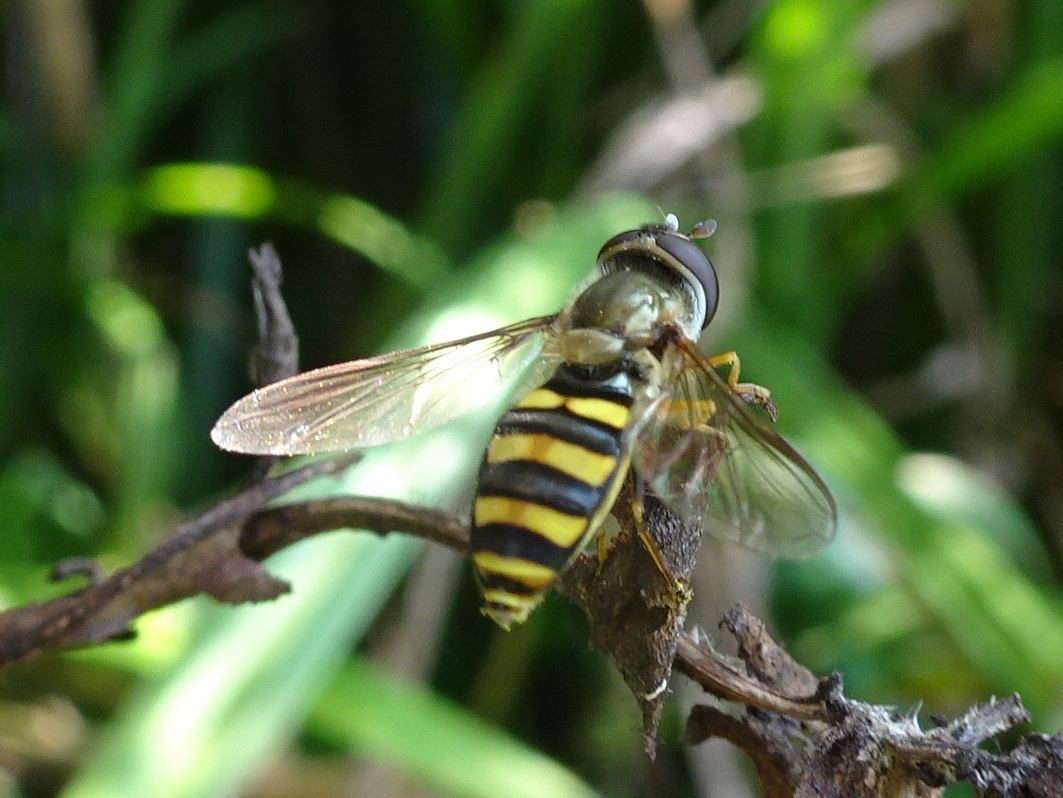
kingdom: Animalia
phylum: Arthropoda
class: Insecta
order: Diptera
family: Syrphidae
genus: Eupeodes
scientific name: Eupeodes
